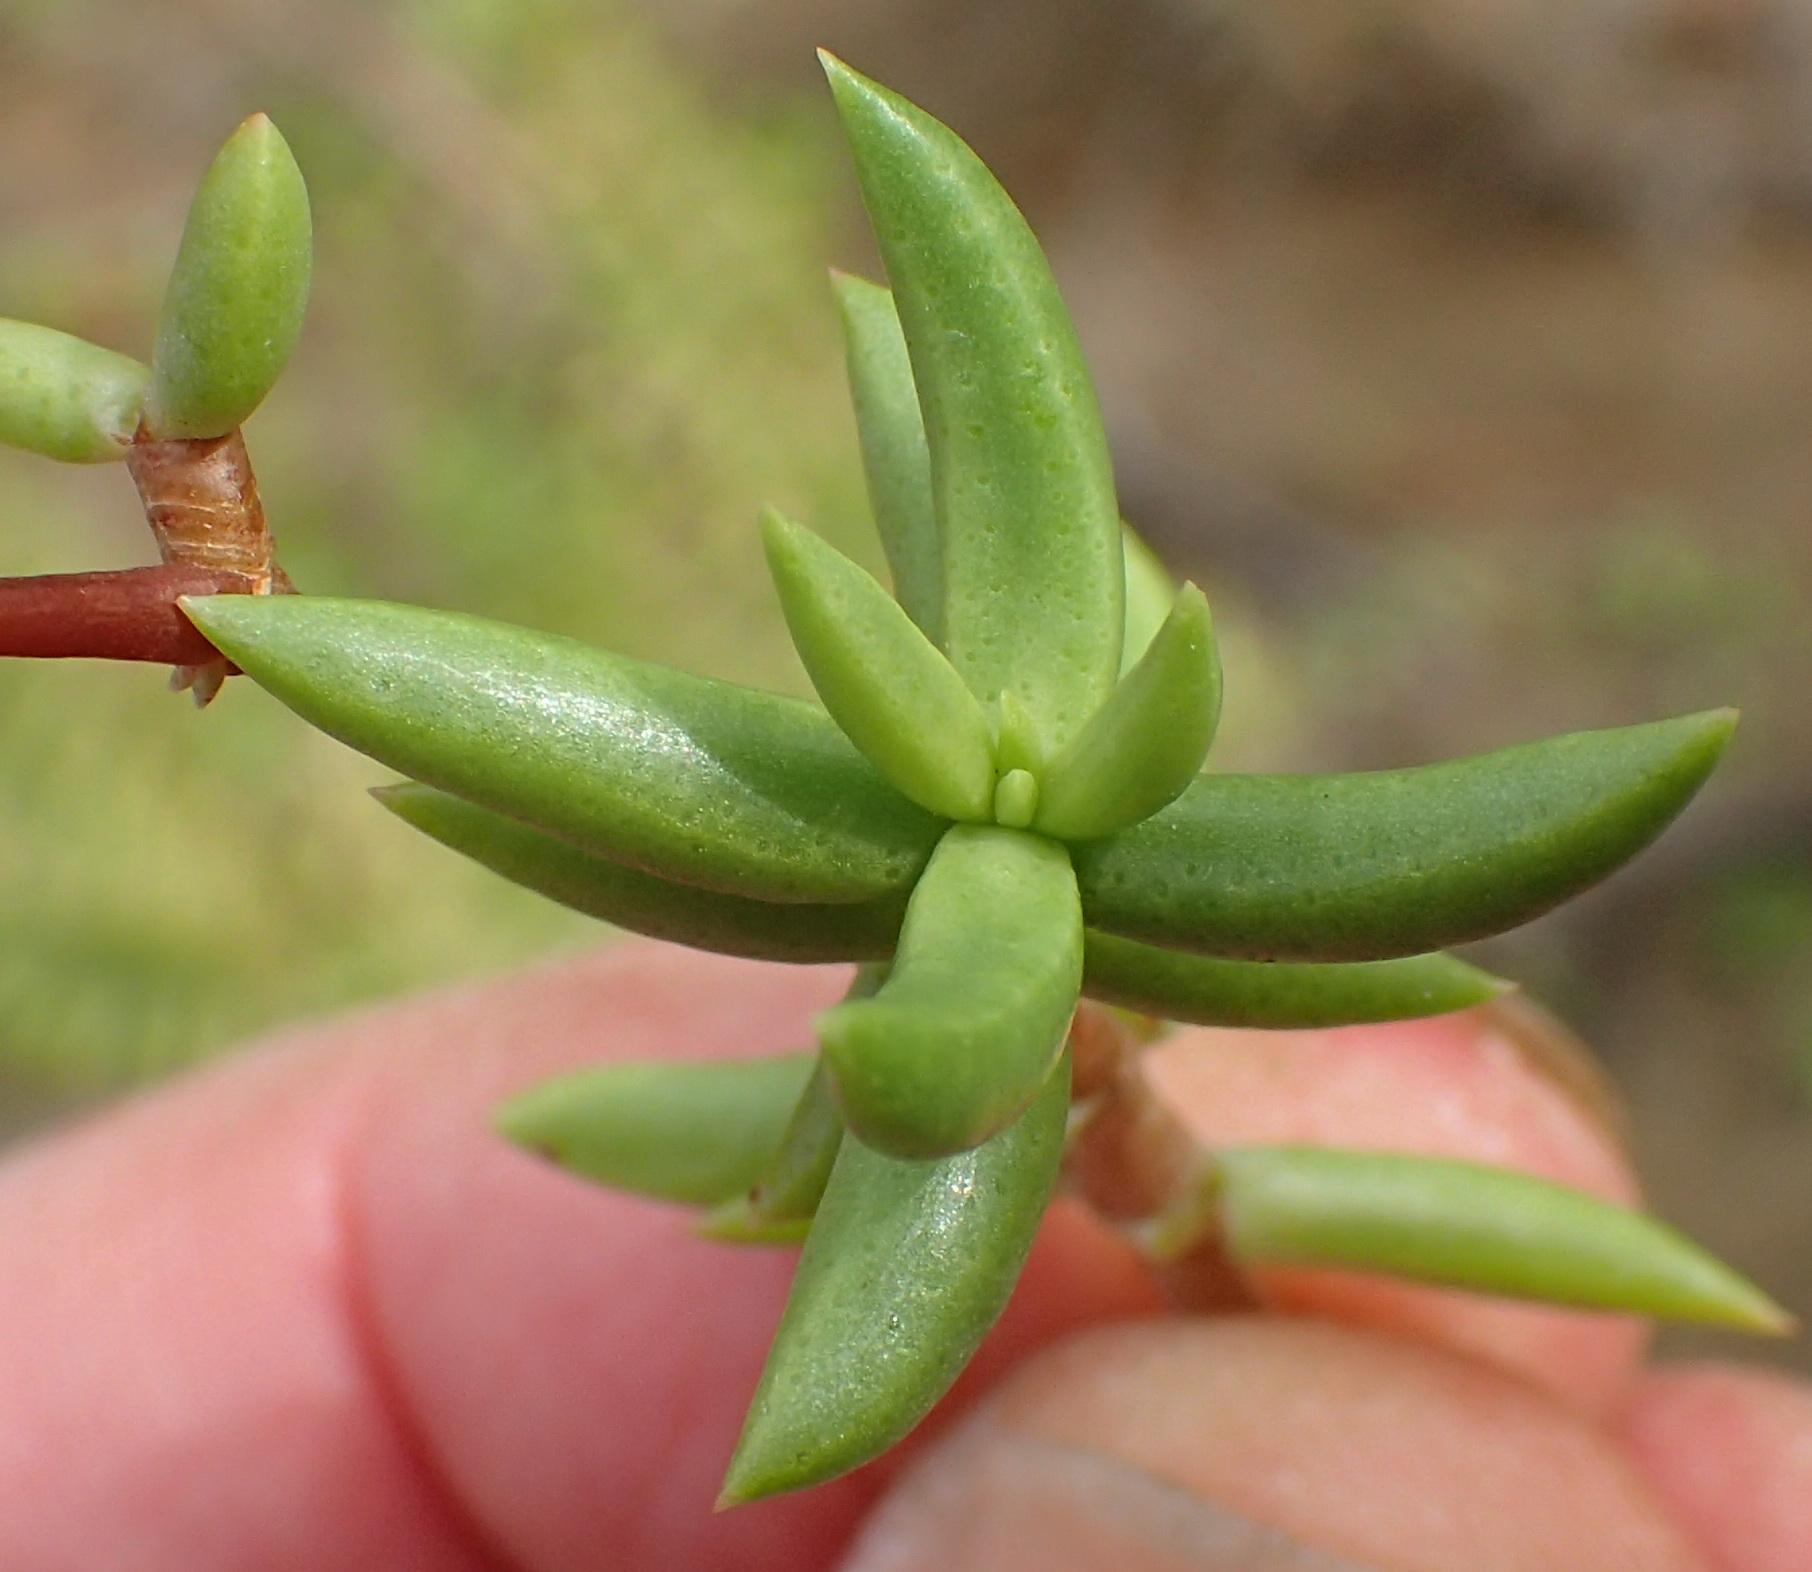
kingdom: Plantae
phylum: Tracheophyta
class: Magnoliopsida
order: Saxifragales
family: Crassulaceae
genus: Crassula
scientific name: Crassula tetragona
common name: Pygmyweed
